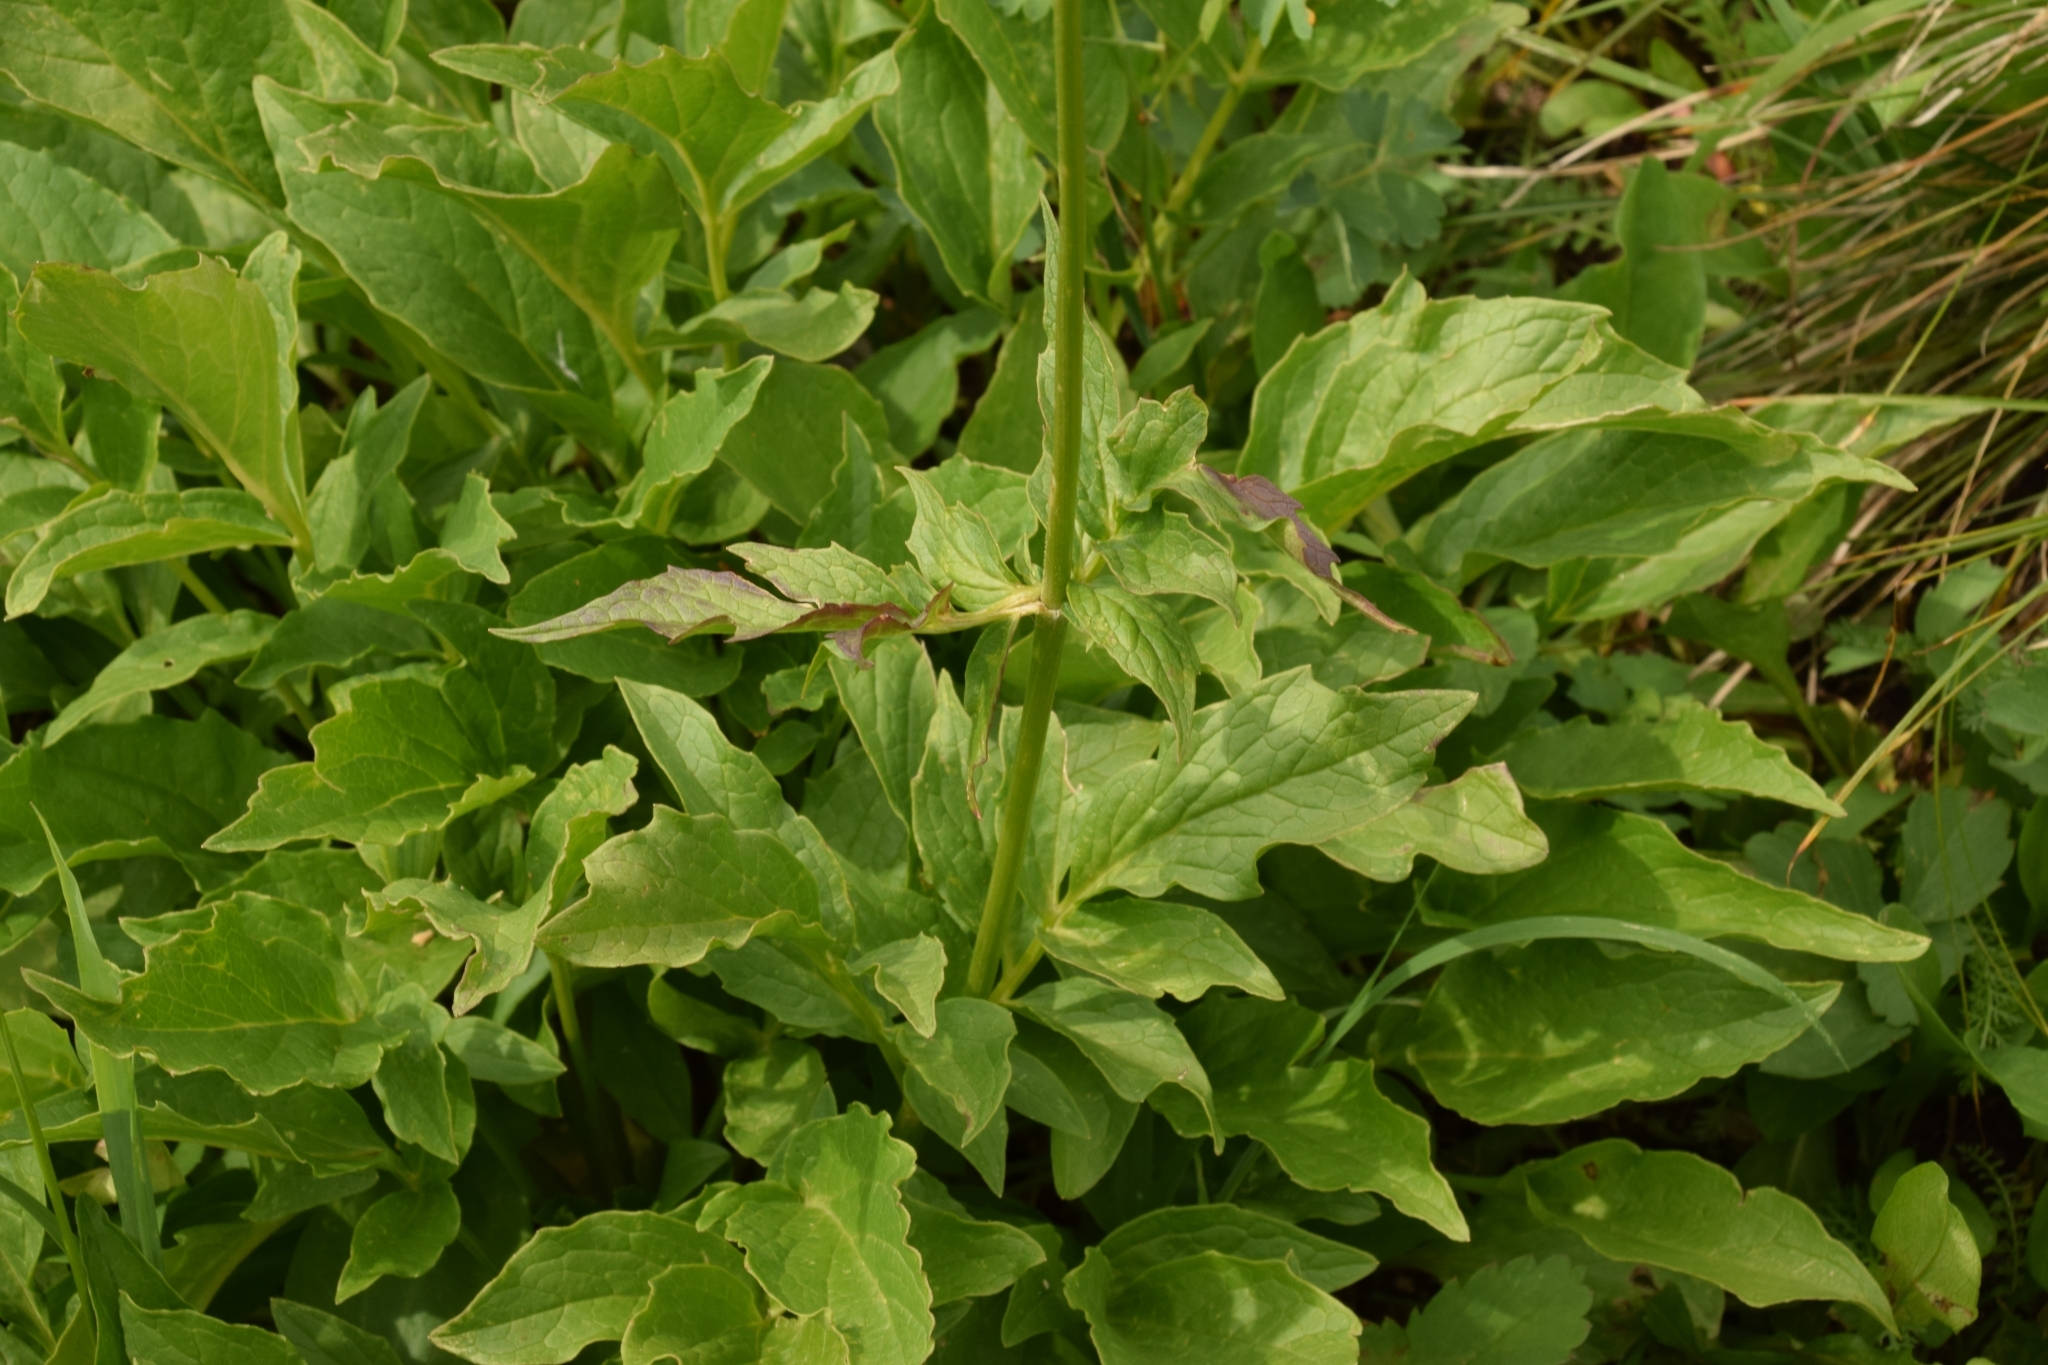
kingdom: Plantae
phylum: Tracheophyta
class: Magnoliopsida
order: Dipsacales
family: Caprifoliaceae
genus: Valeriana
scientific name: Valeriana sitchensis
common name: Pacific valerian
